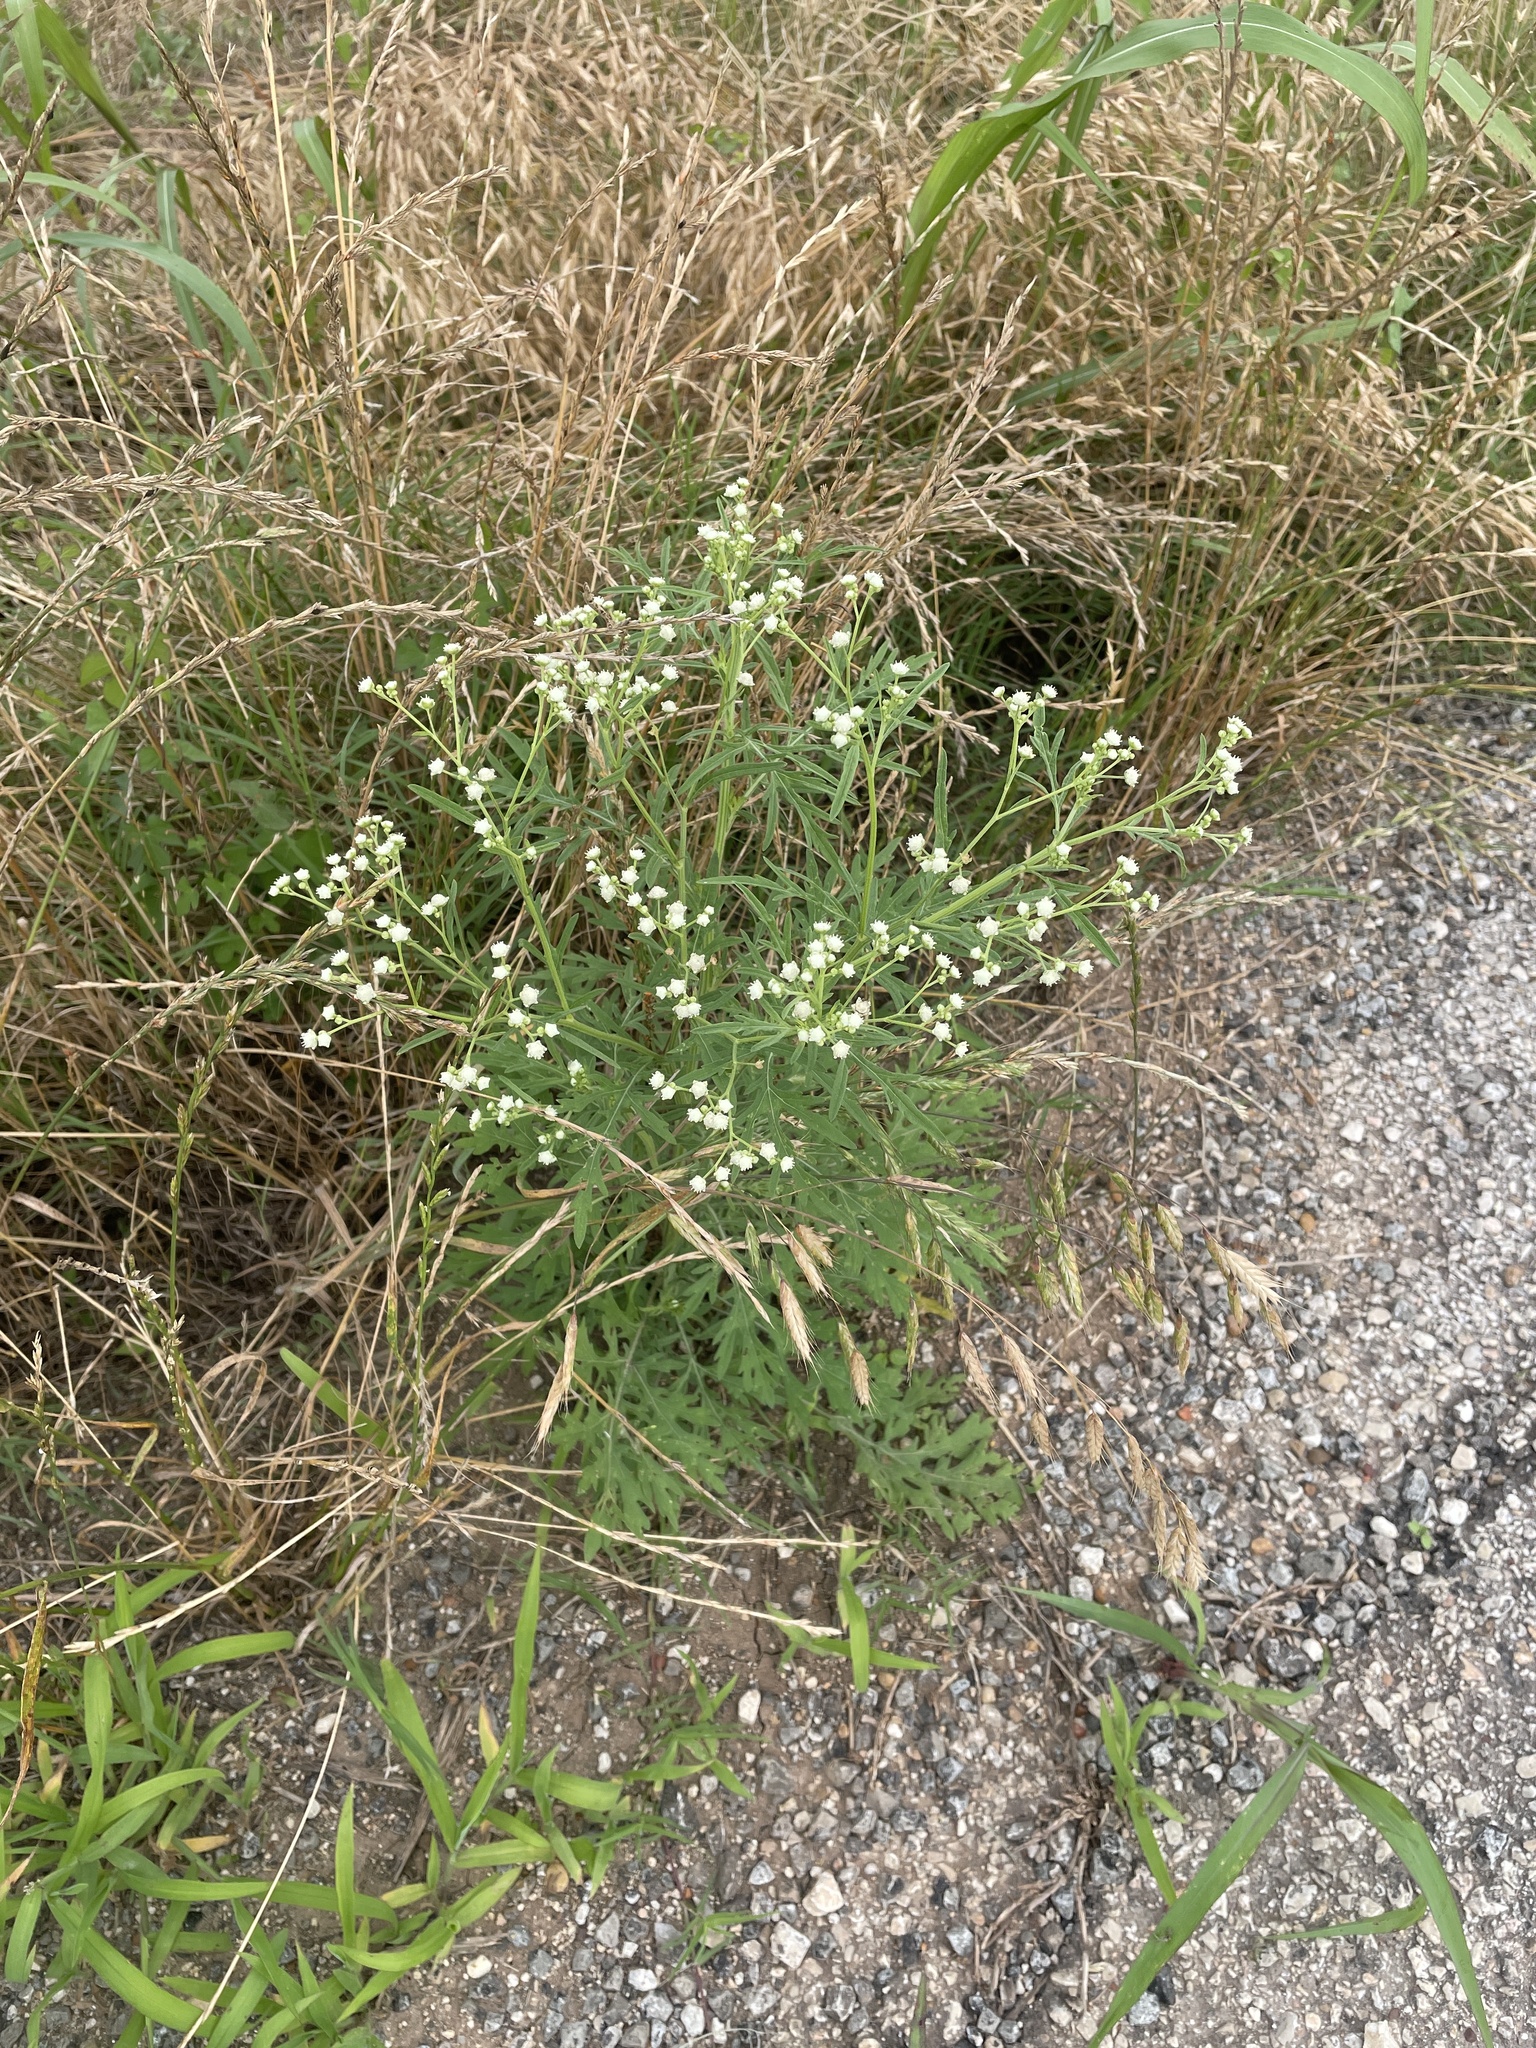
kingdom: Plantae
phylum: Tracheophyta
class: Magnoliopsida
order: Asterales
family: Asteraceae
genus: Parthenium
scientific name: Parthenium hysterophorus
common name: Santa maria feverfew
